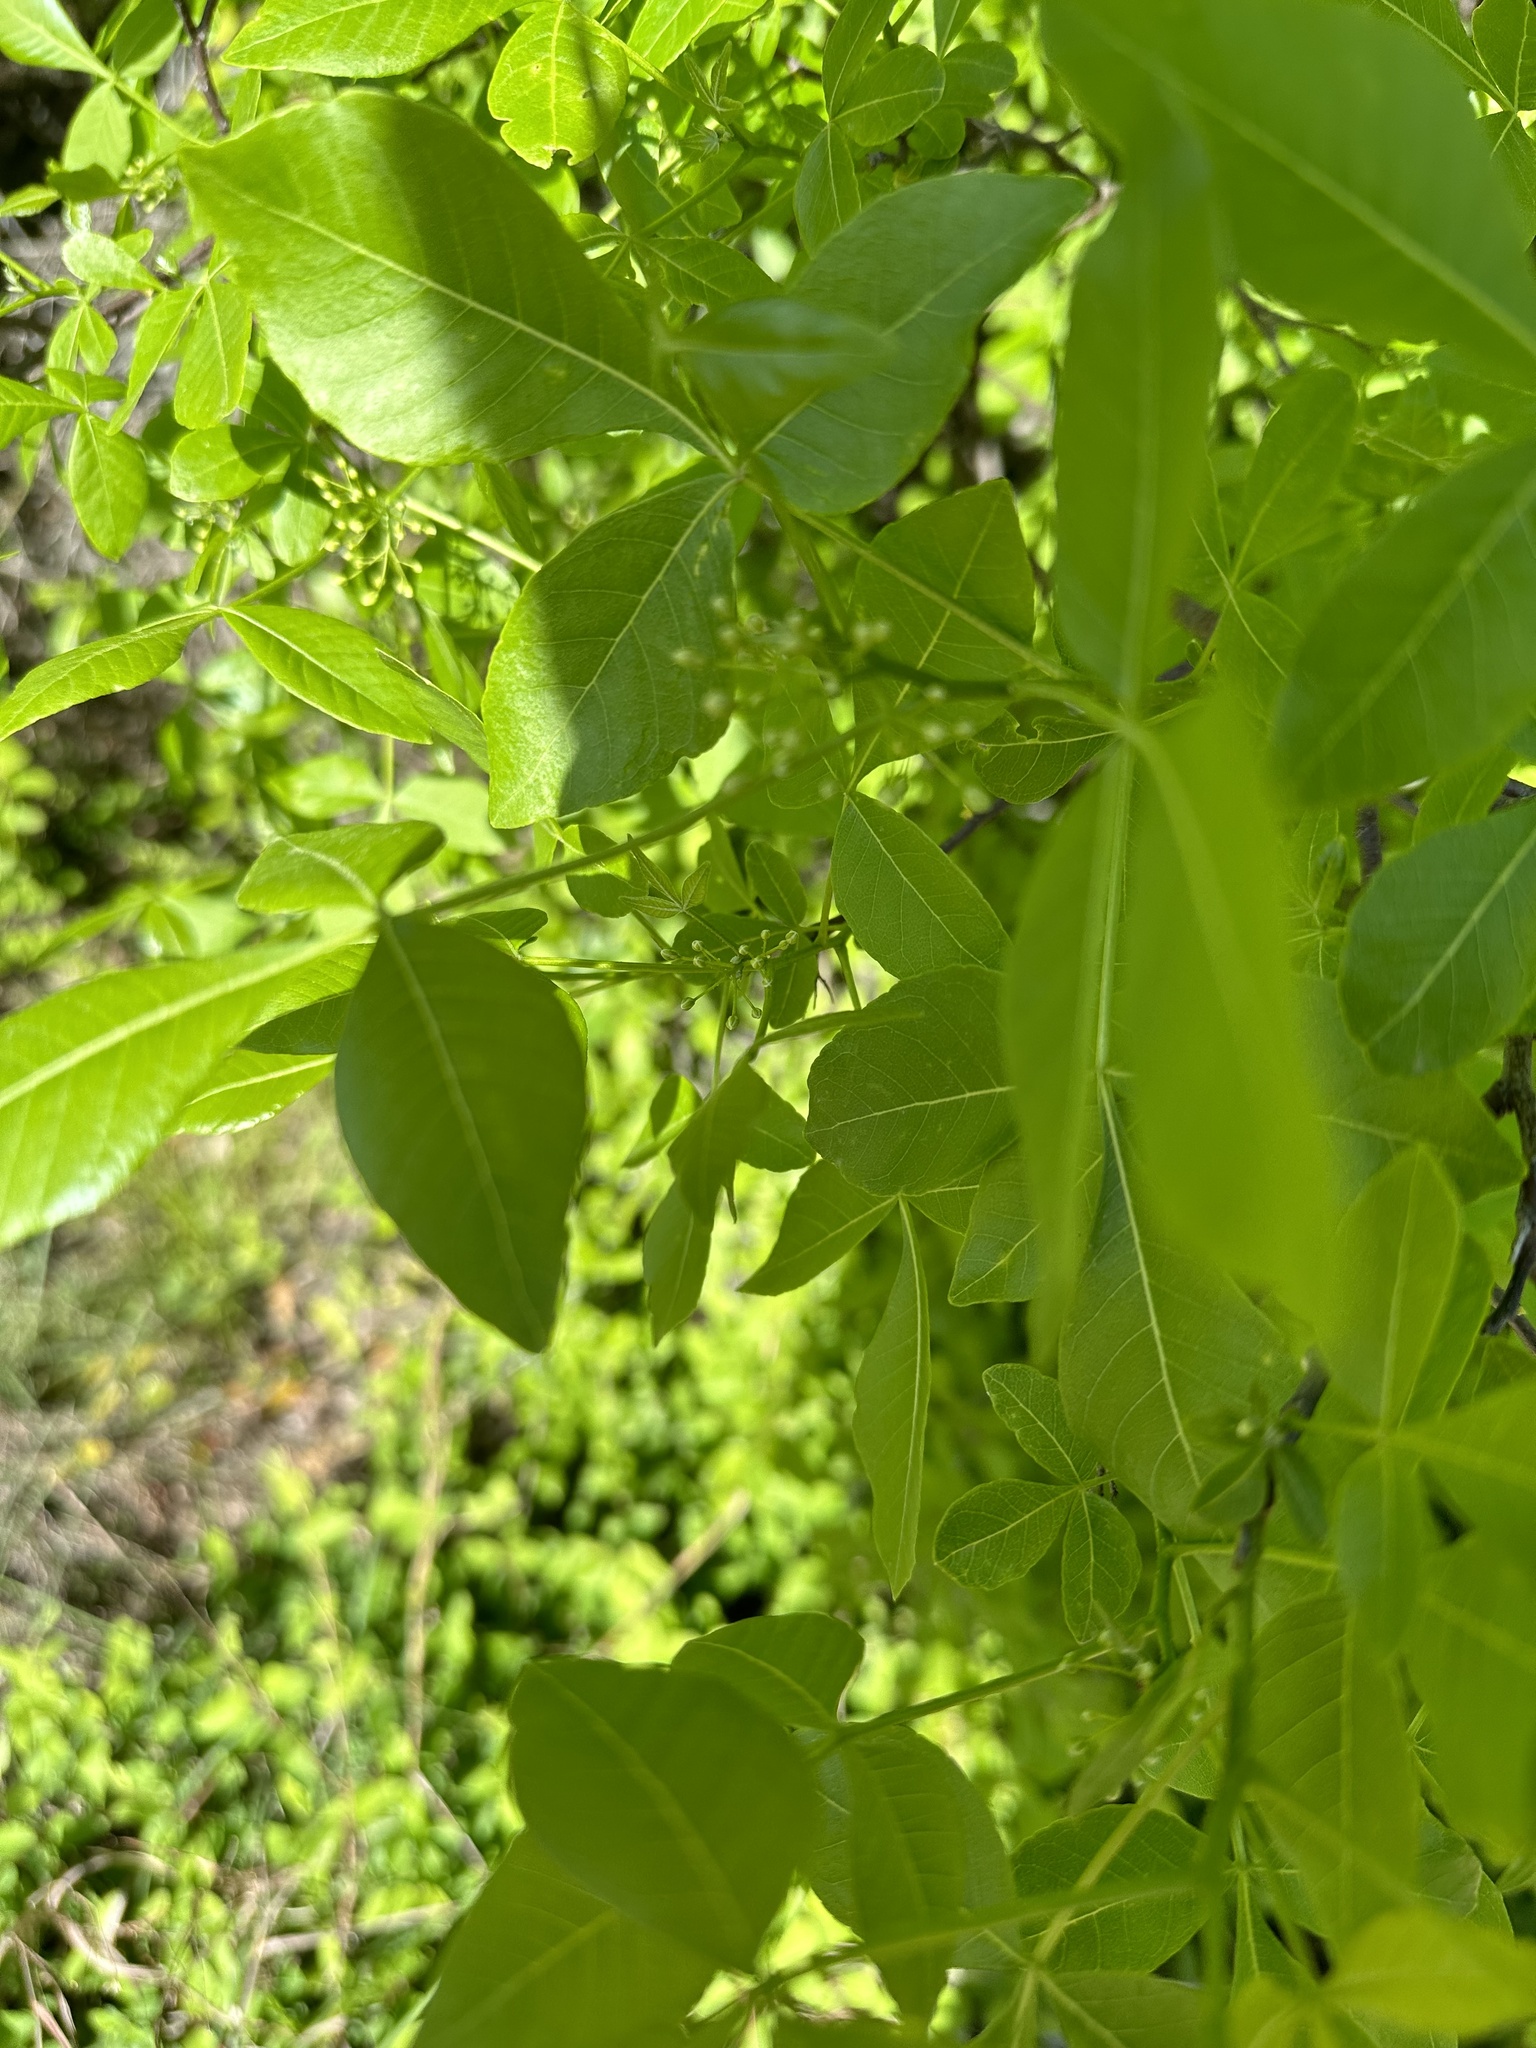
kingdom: Plantae
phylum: Tracheophyta
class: Magnoliopsida
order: Sapindales
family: Rutaceae
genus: Ptelea
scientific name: Ptelea trifoliata
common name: Common hop-tree
